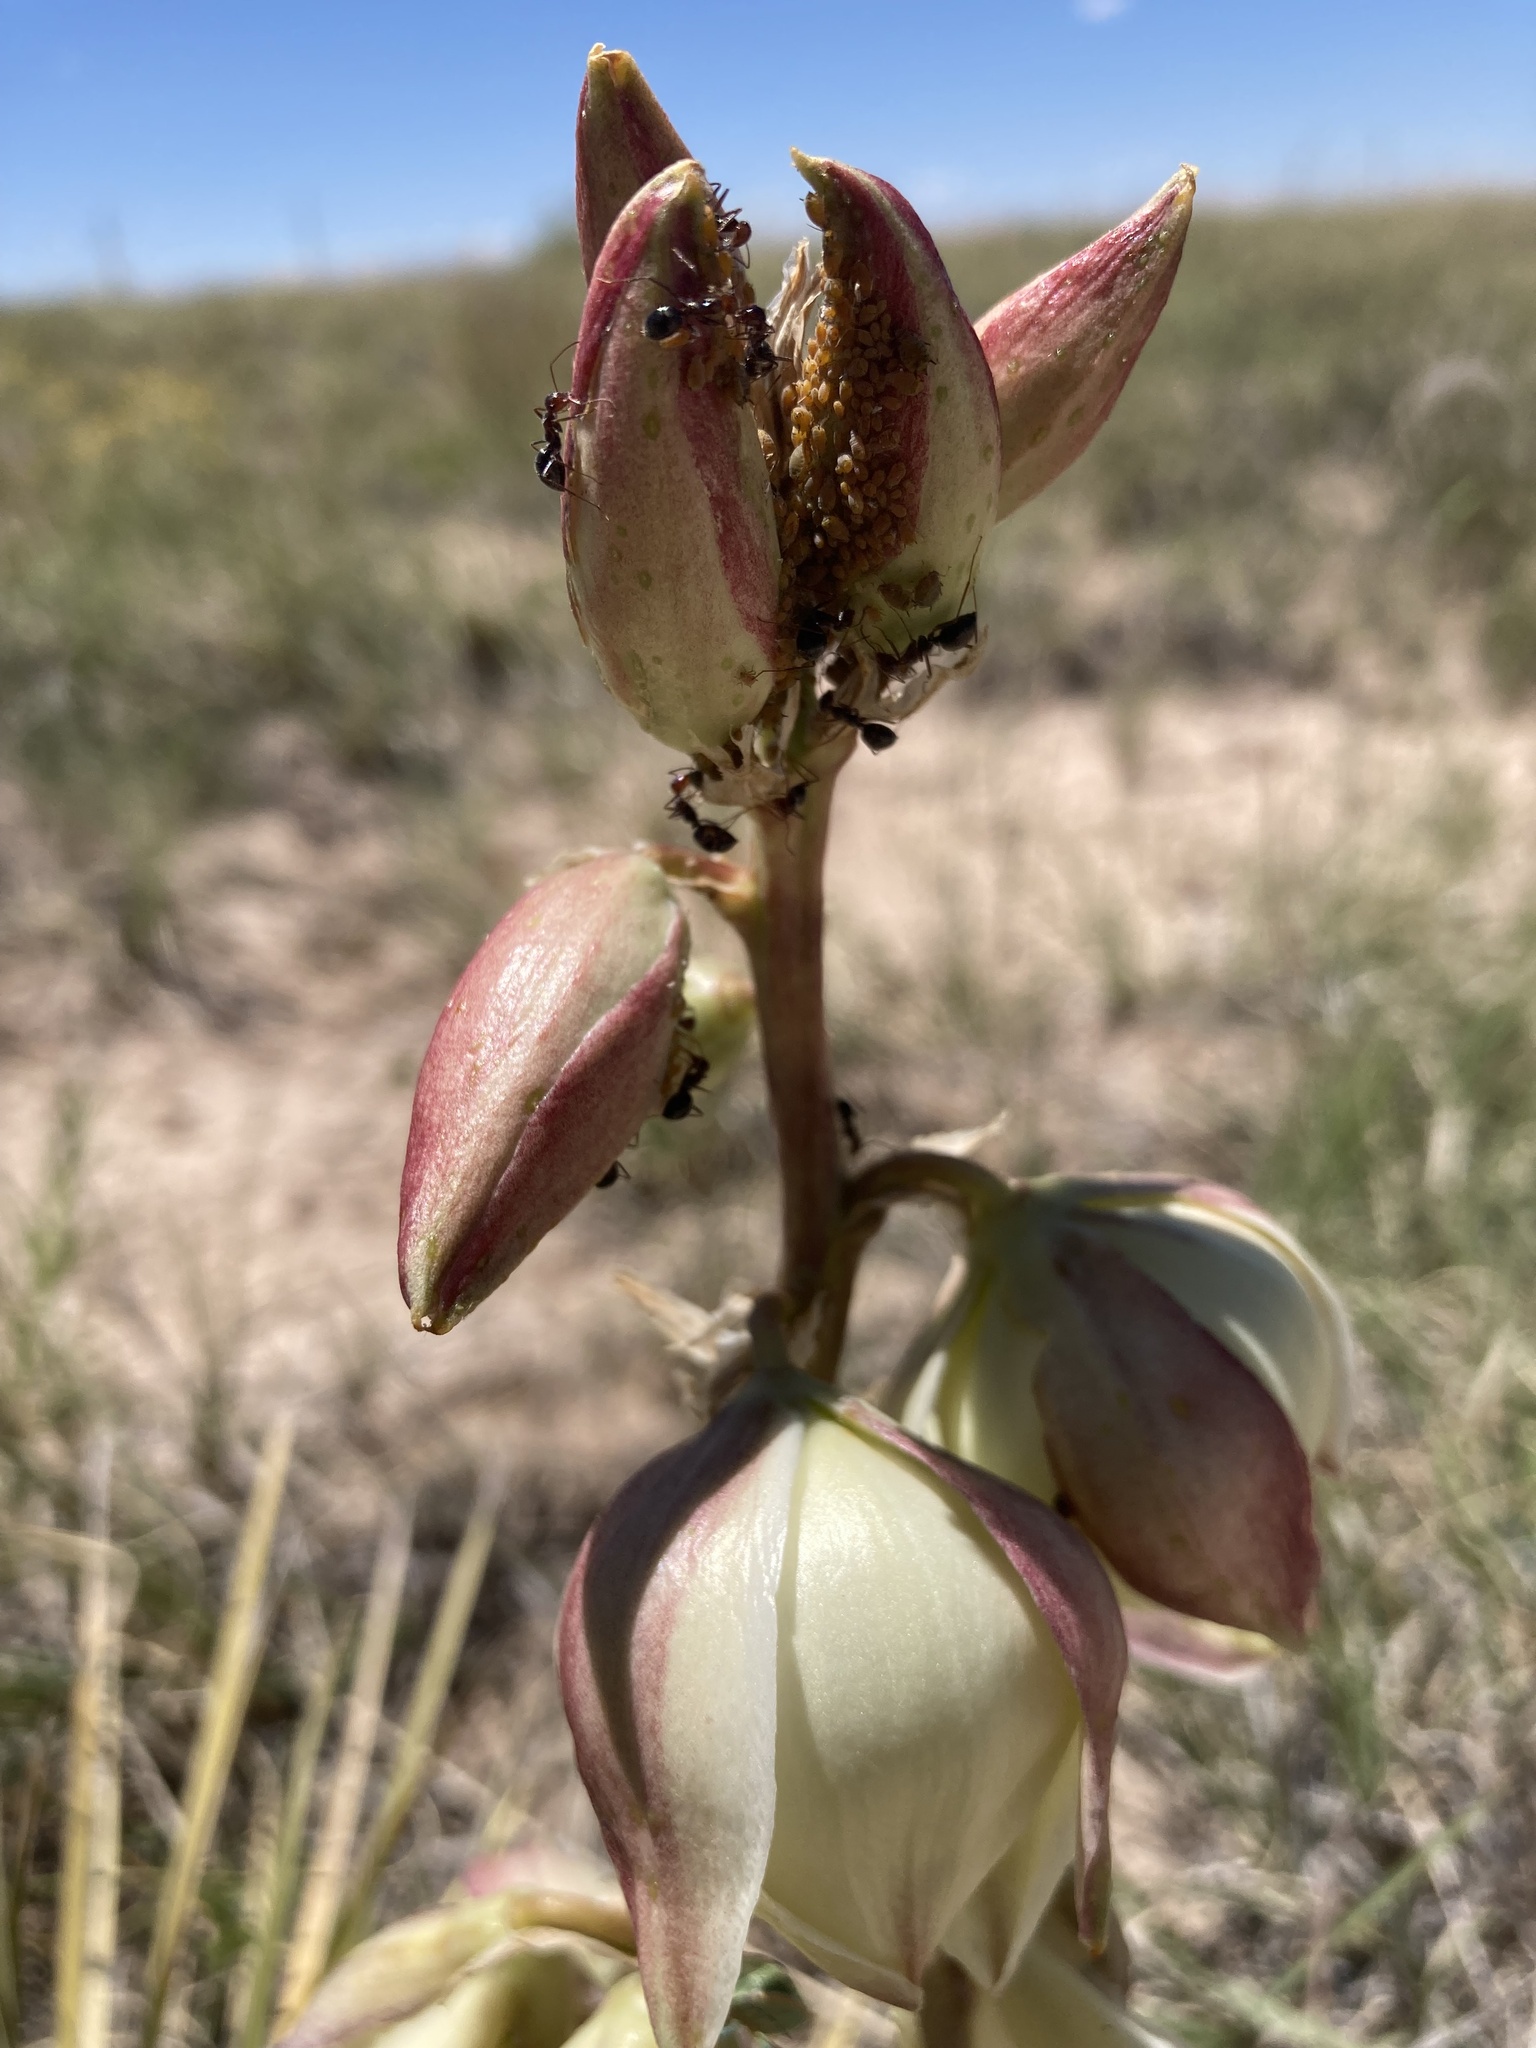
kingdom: Animalia
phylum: Arthropoda
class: Insecta
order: Hemiptera
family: Aphididae
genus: Aphis
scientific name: Aphis asclepiadis
